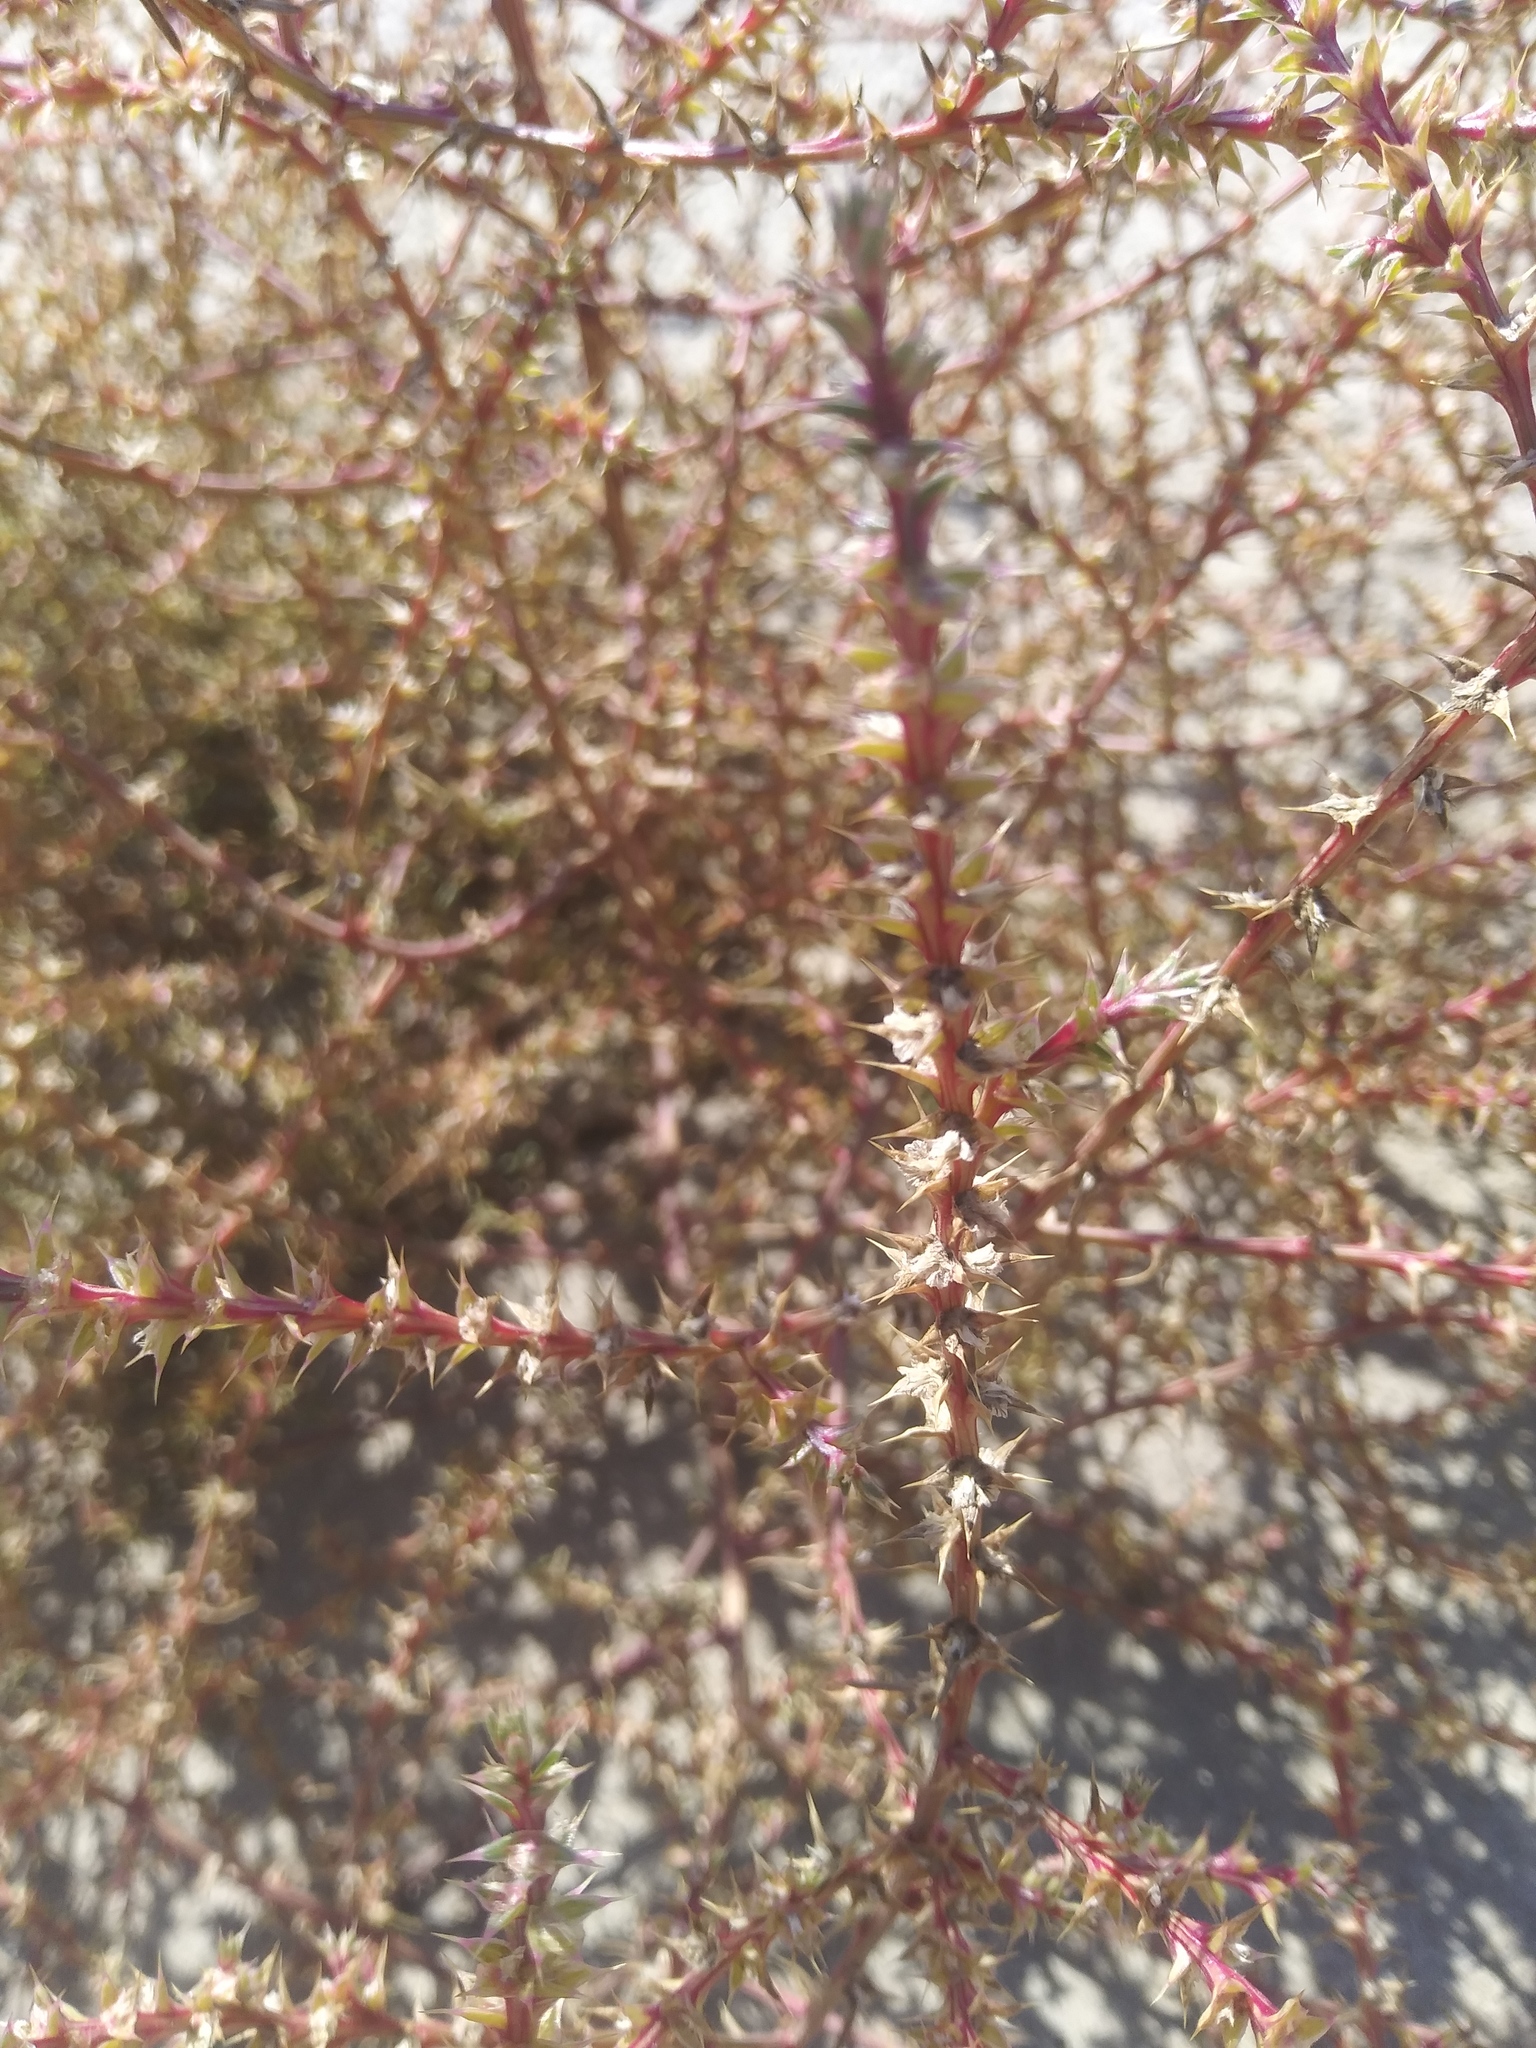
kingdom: Plantae
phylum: Tracheophyta
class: Magnoliopsida
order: Caryophyllales
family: Amaranthaceae
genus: Salsola
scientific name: Salsola tragus
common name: Prickly russian thistle
